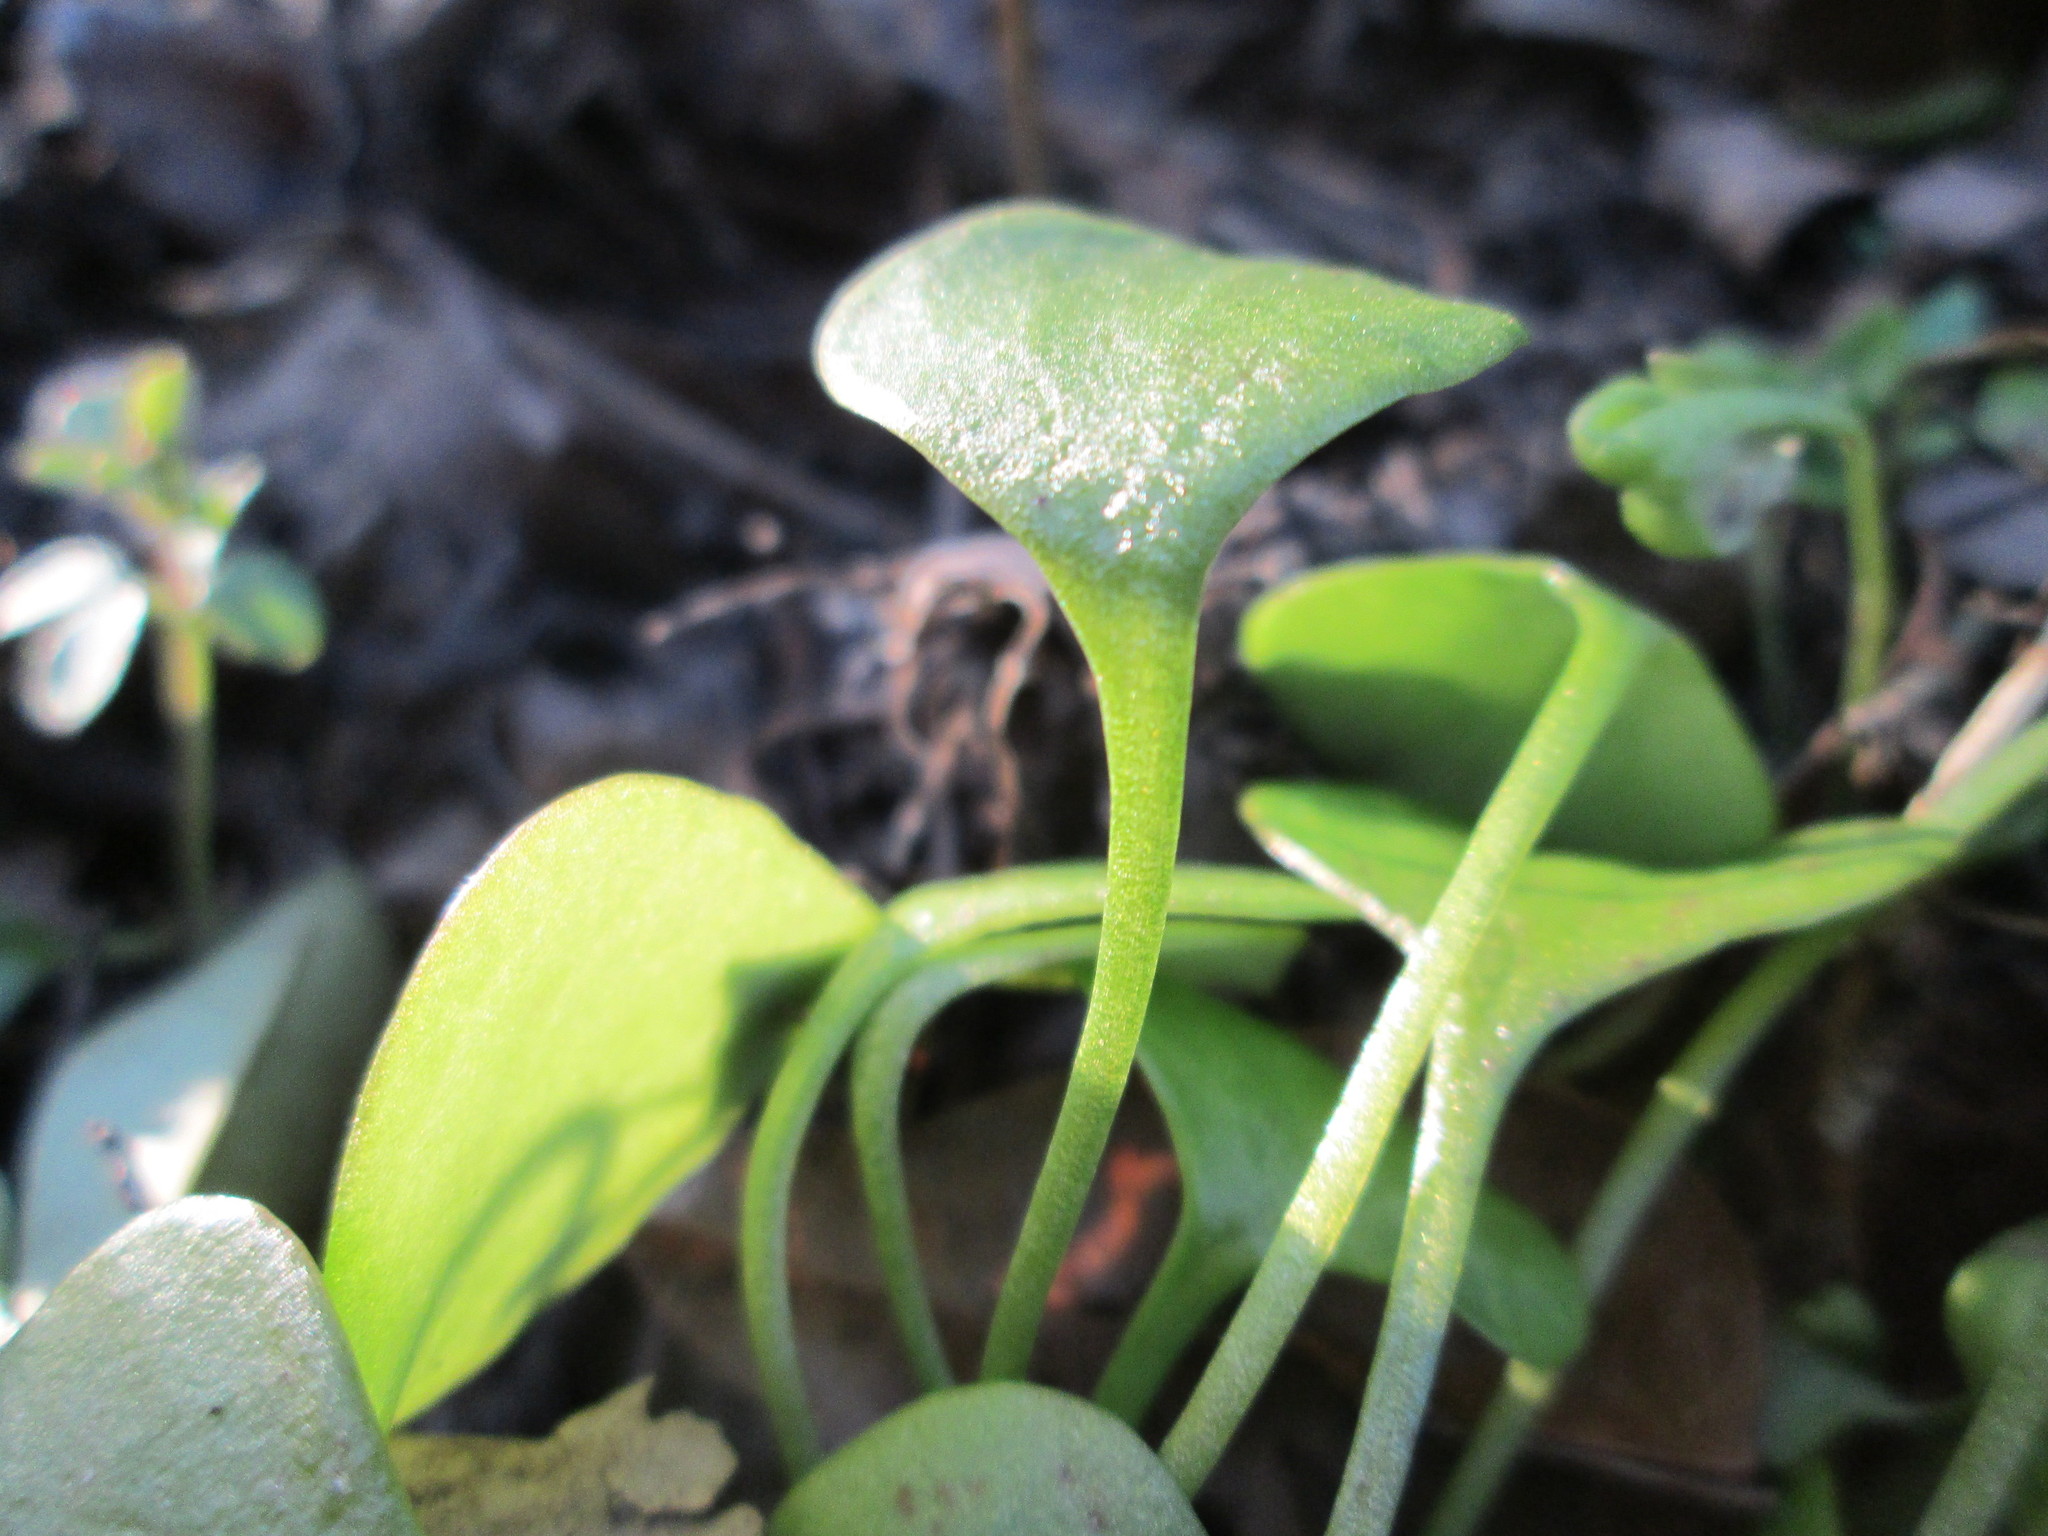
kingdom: Plantae
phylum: Tracheophyta
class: Magnoliopsida
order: Caryophyllales
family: Montiaceae
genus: Claytonia
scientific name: Claytonia perfoliata
